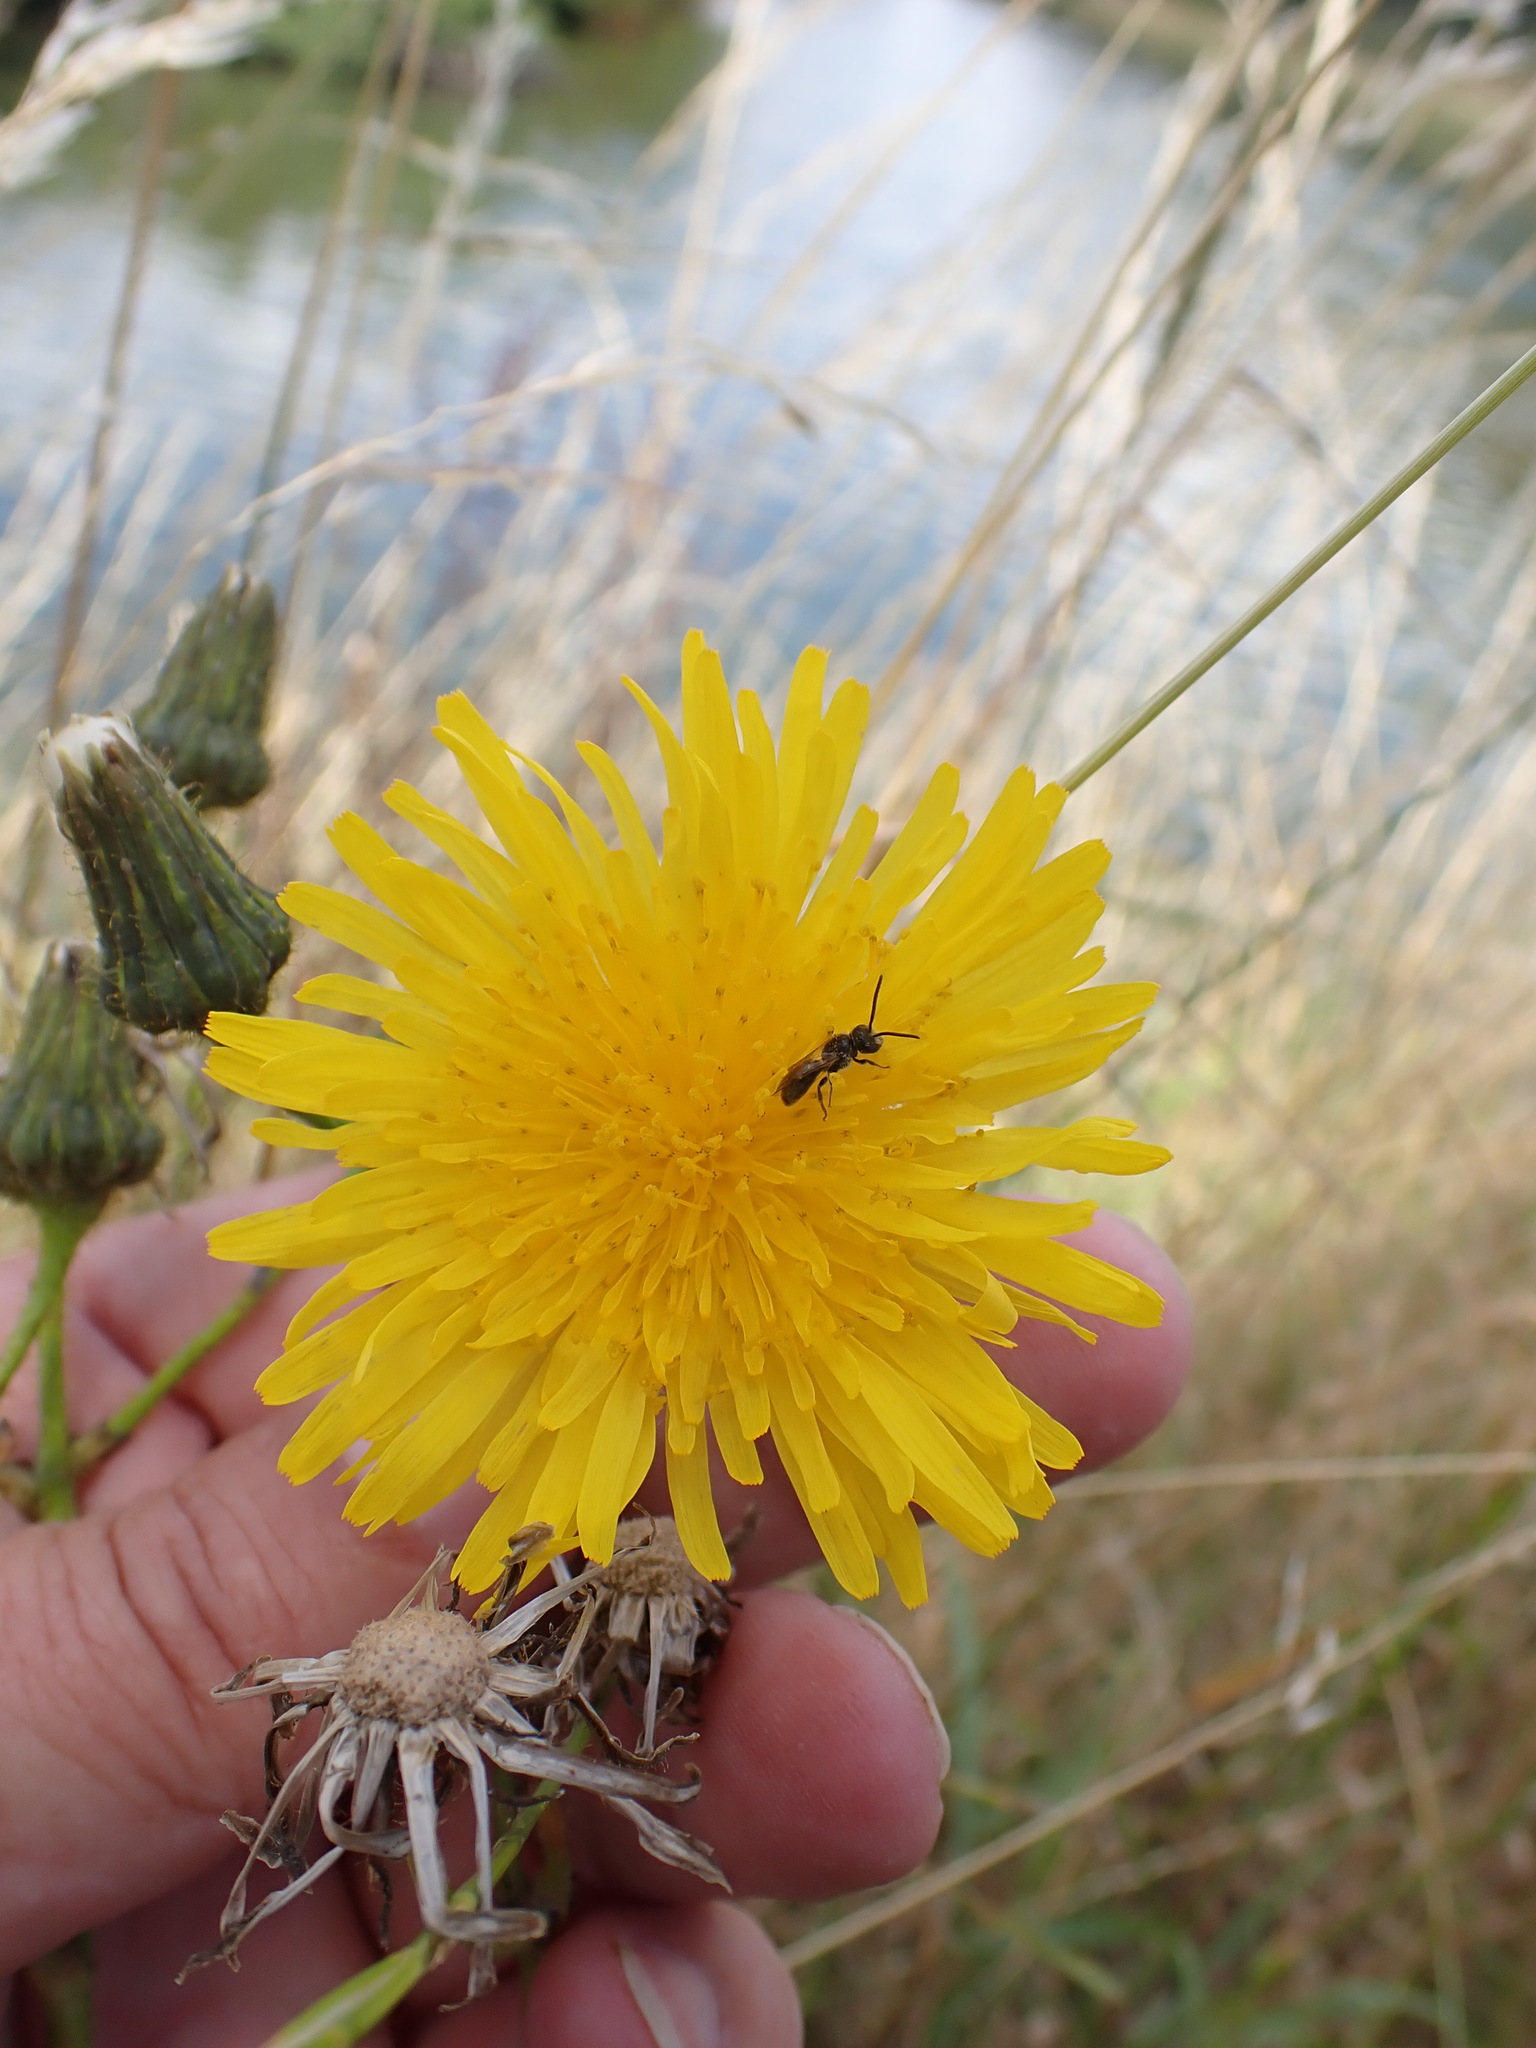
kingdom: Plantae
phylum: Tracheophyta
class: Magnoliopsida
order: Asterales
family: Asteraceae
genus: Sonchus
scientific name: Sonchus arvensis
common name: Perennial sow-thistle
